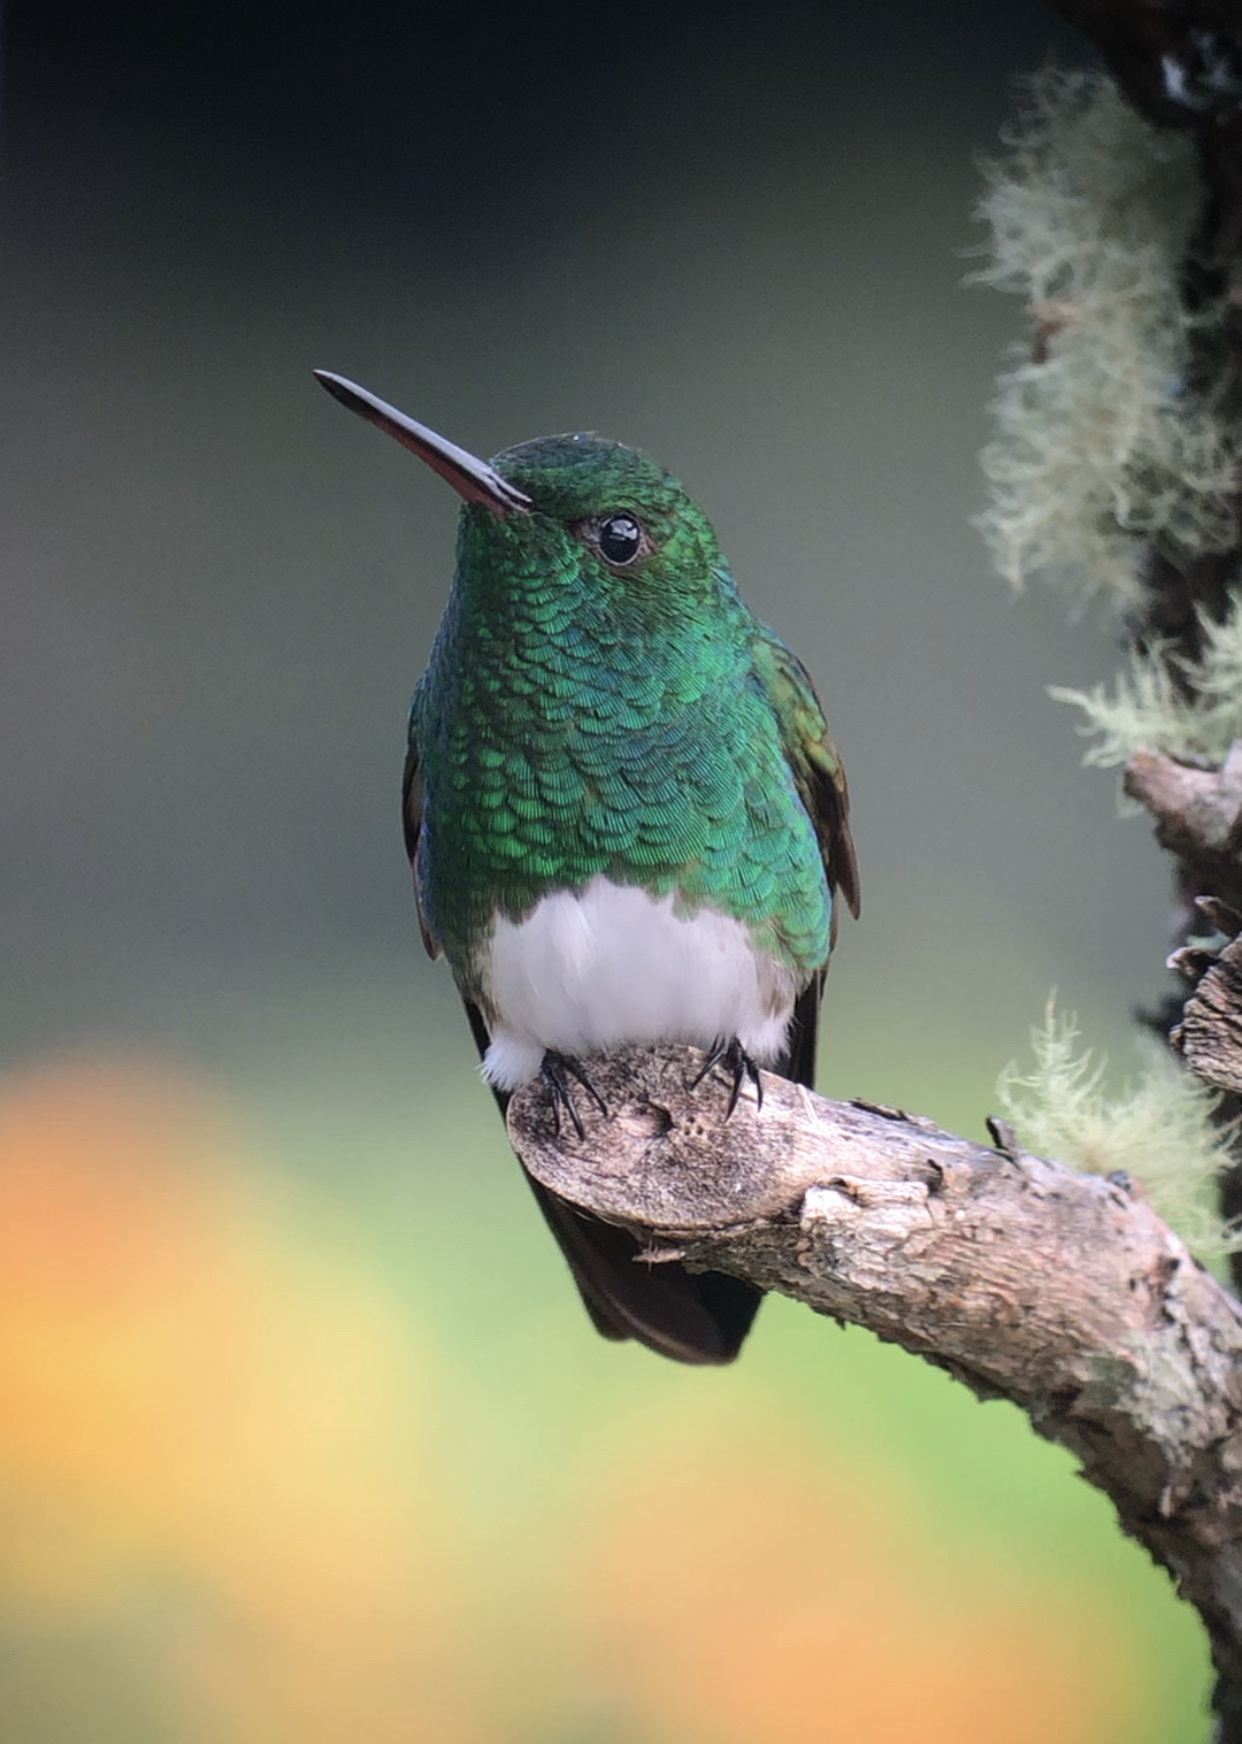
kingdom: Animalia
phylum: Chordata
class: Aves
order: Apodiformes
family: Trochilidae
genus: Saucerottia
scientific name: Saucerottia edward
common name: Snowy-bellied hummingbird
